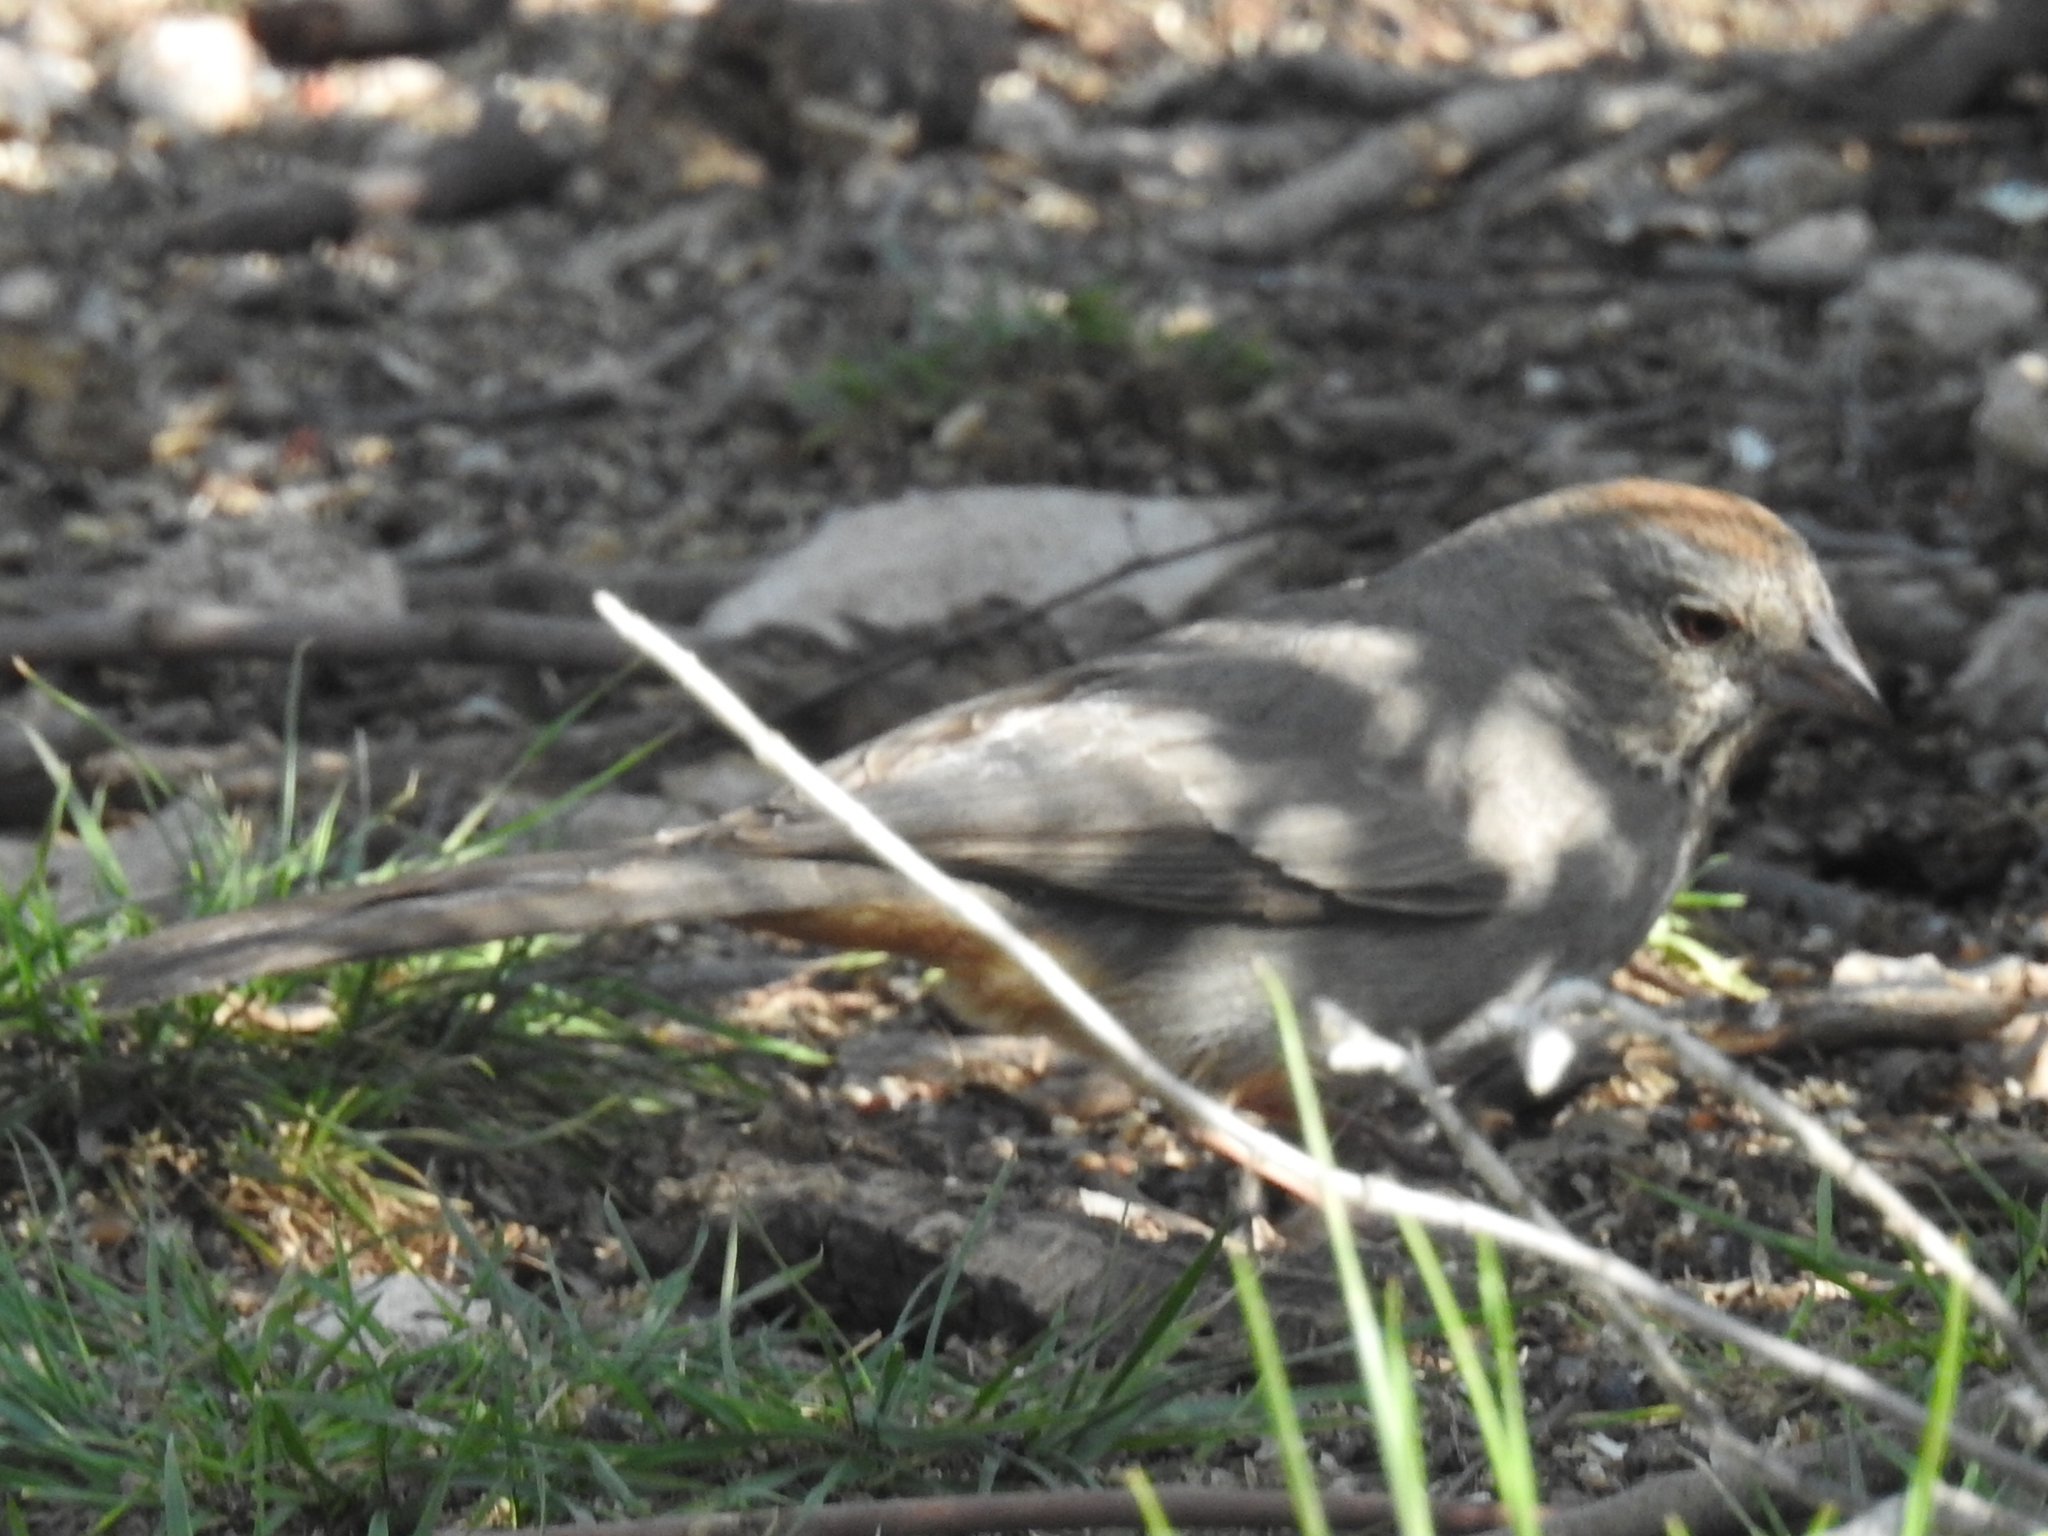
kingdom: Animalia
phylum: Chordata
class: Aves
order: Passeriformes
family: Passerellidae
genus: Melozone
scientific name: Melozone fusca
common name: Canyon towhee
